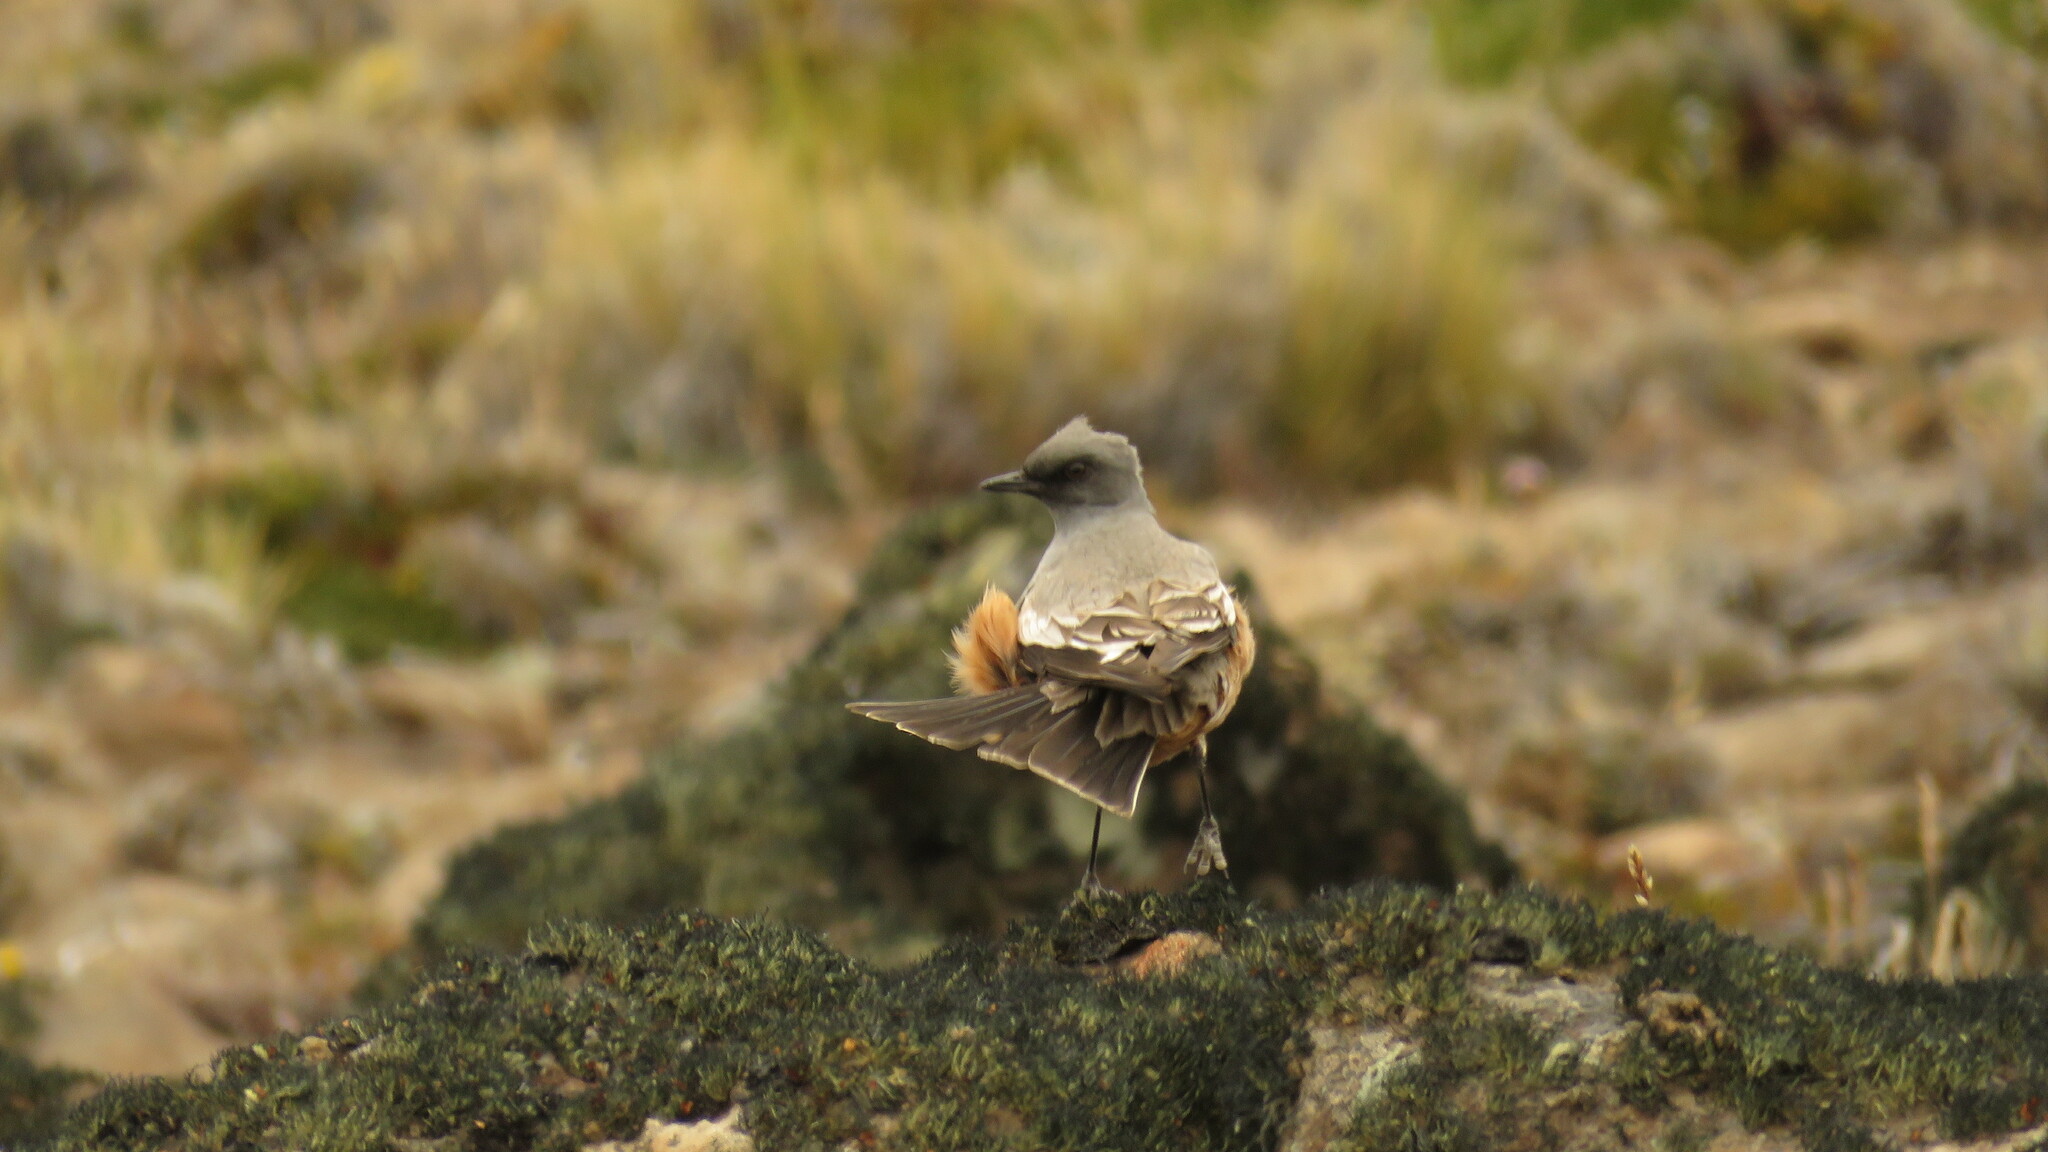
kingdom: Animalia
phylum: Chordata
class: Aves
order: Passeriformes
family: Tyrannidae
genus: Neoxolmis
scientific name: Neoxolmis rufiventris
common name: Chocolate-vented tyrant
